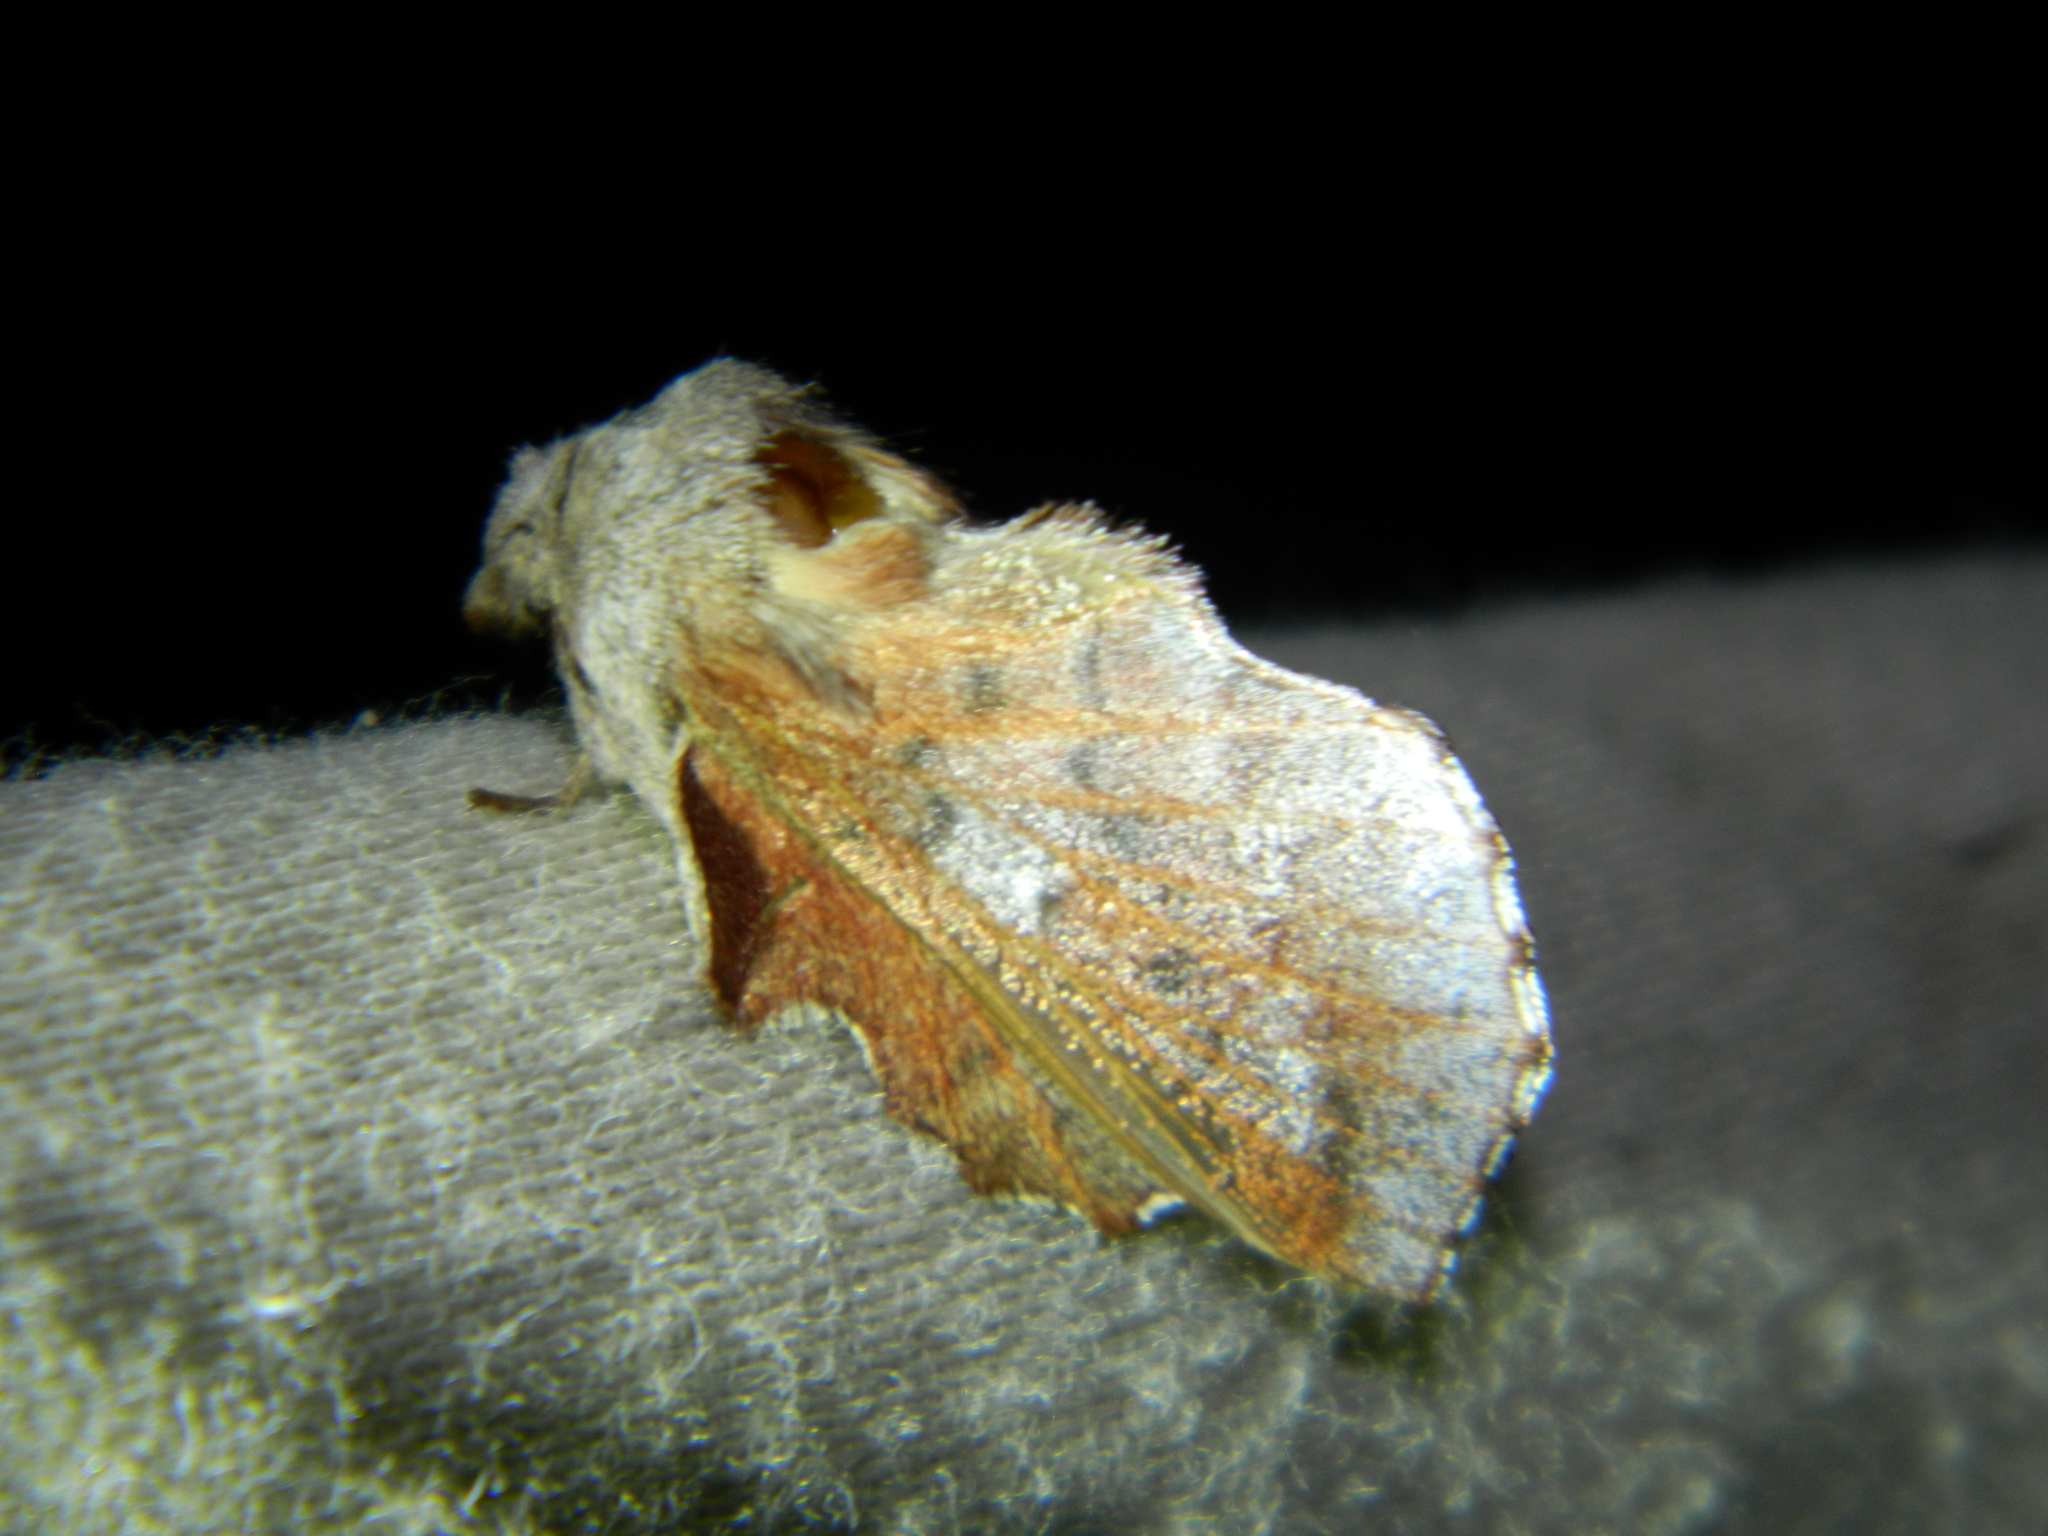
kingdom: Animalia
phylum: Arthropoda
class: Insecta
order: Lepidoptera
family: Lasiocampidae
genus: Phyllodesma
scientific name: Phyllodesma americana
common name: American lappet moth
